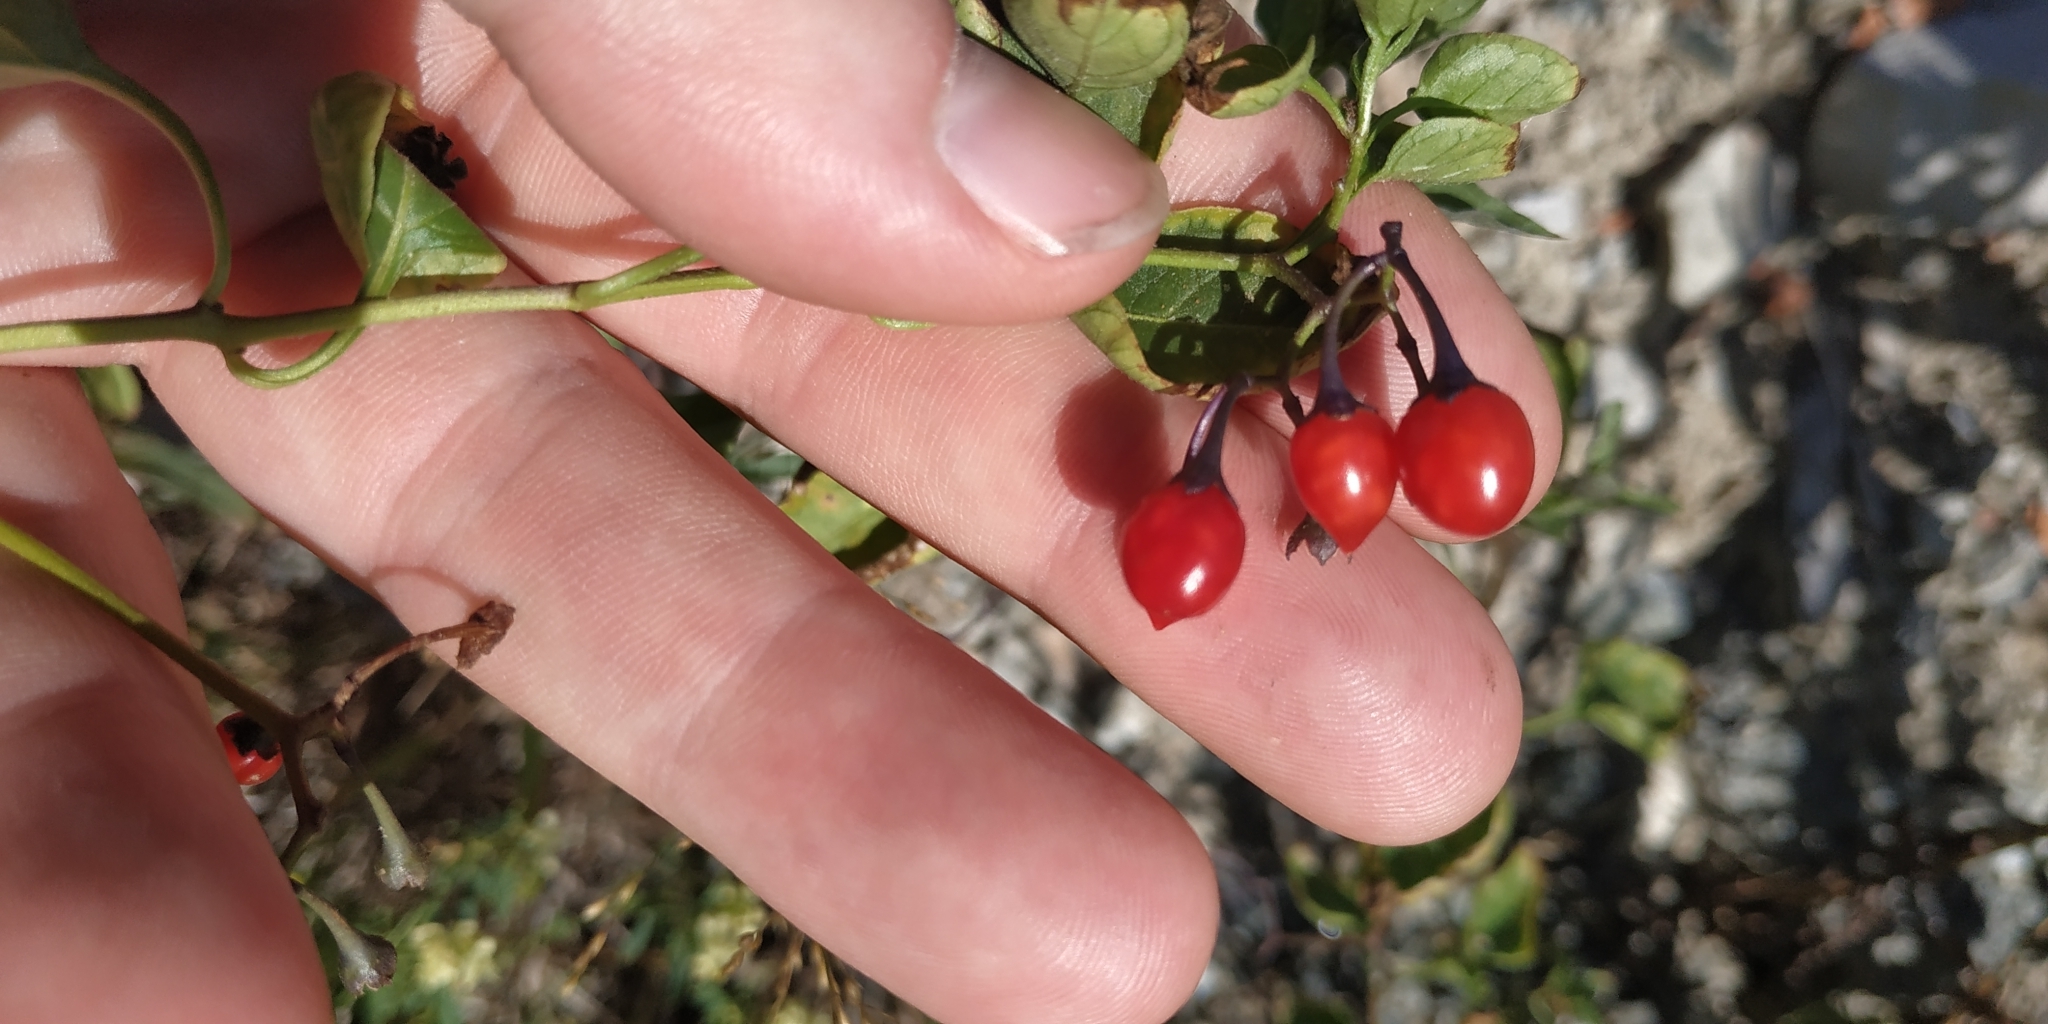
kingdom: Plantae
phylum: Tracheophyta
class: Magnoliopsida
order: Solanales
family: Solanaceae
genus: Solanum
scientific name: Solanum dulcamara
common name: Climbing nightshade
